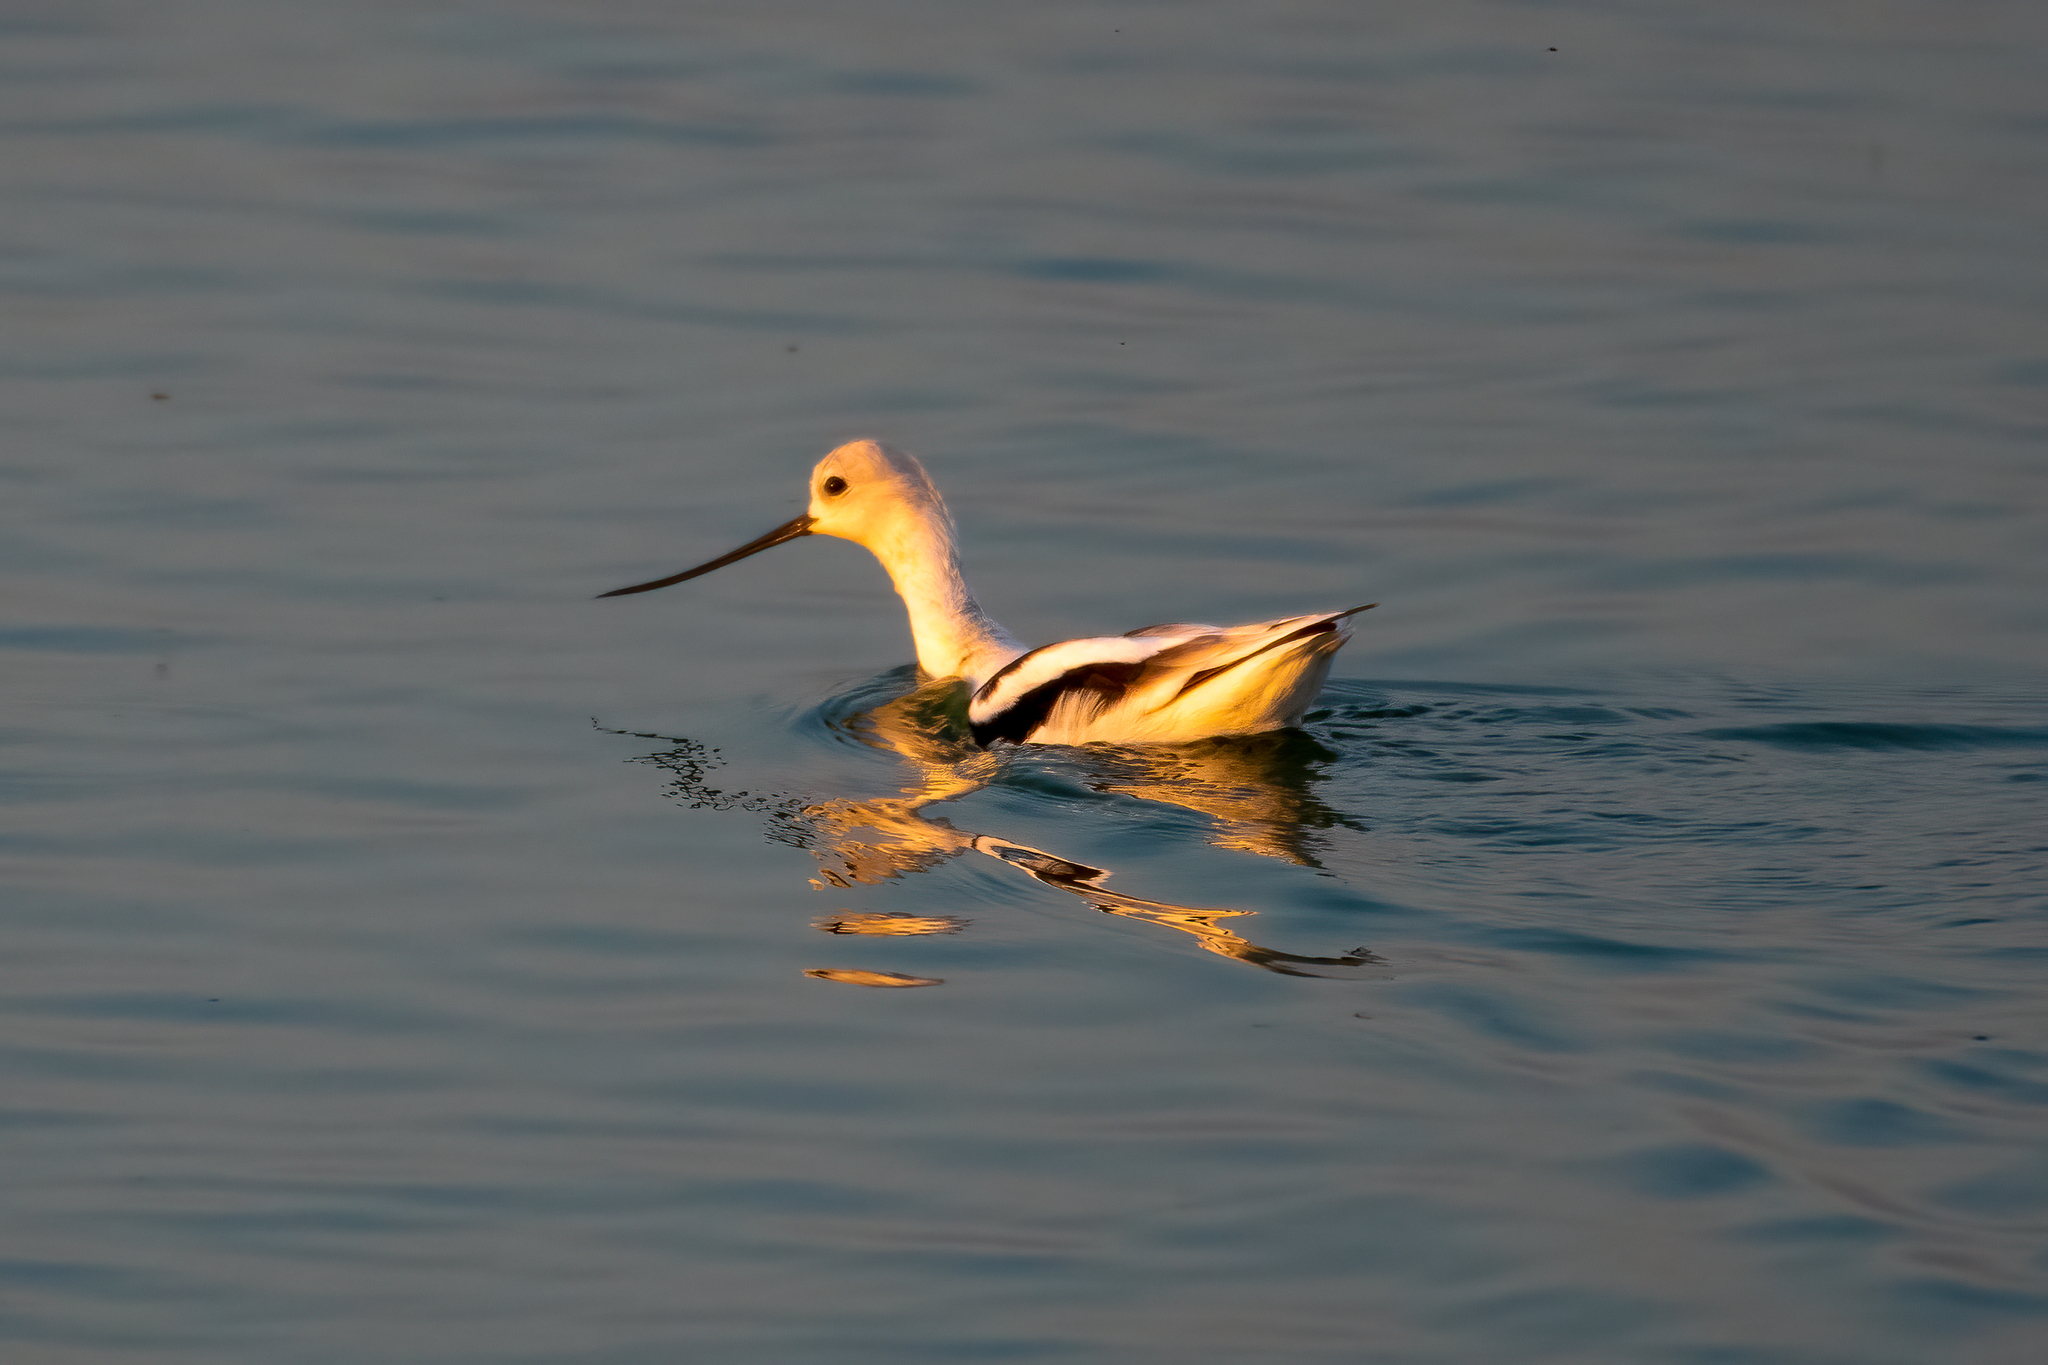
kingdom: Animalia
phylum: Chordata
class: Aves
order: Charadriiformes
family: Recurvirostridae
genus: Recurvirostra
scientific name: Recurvirostra americana
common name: American avocet
